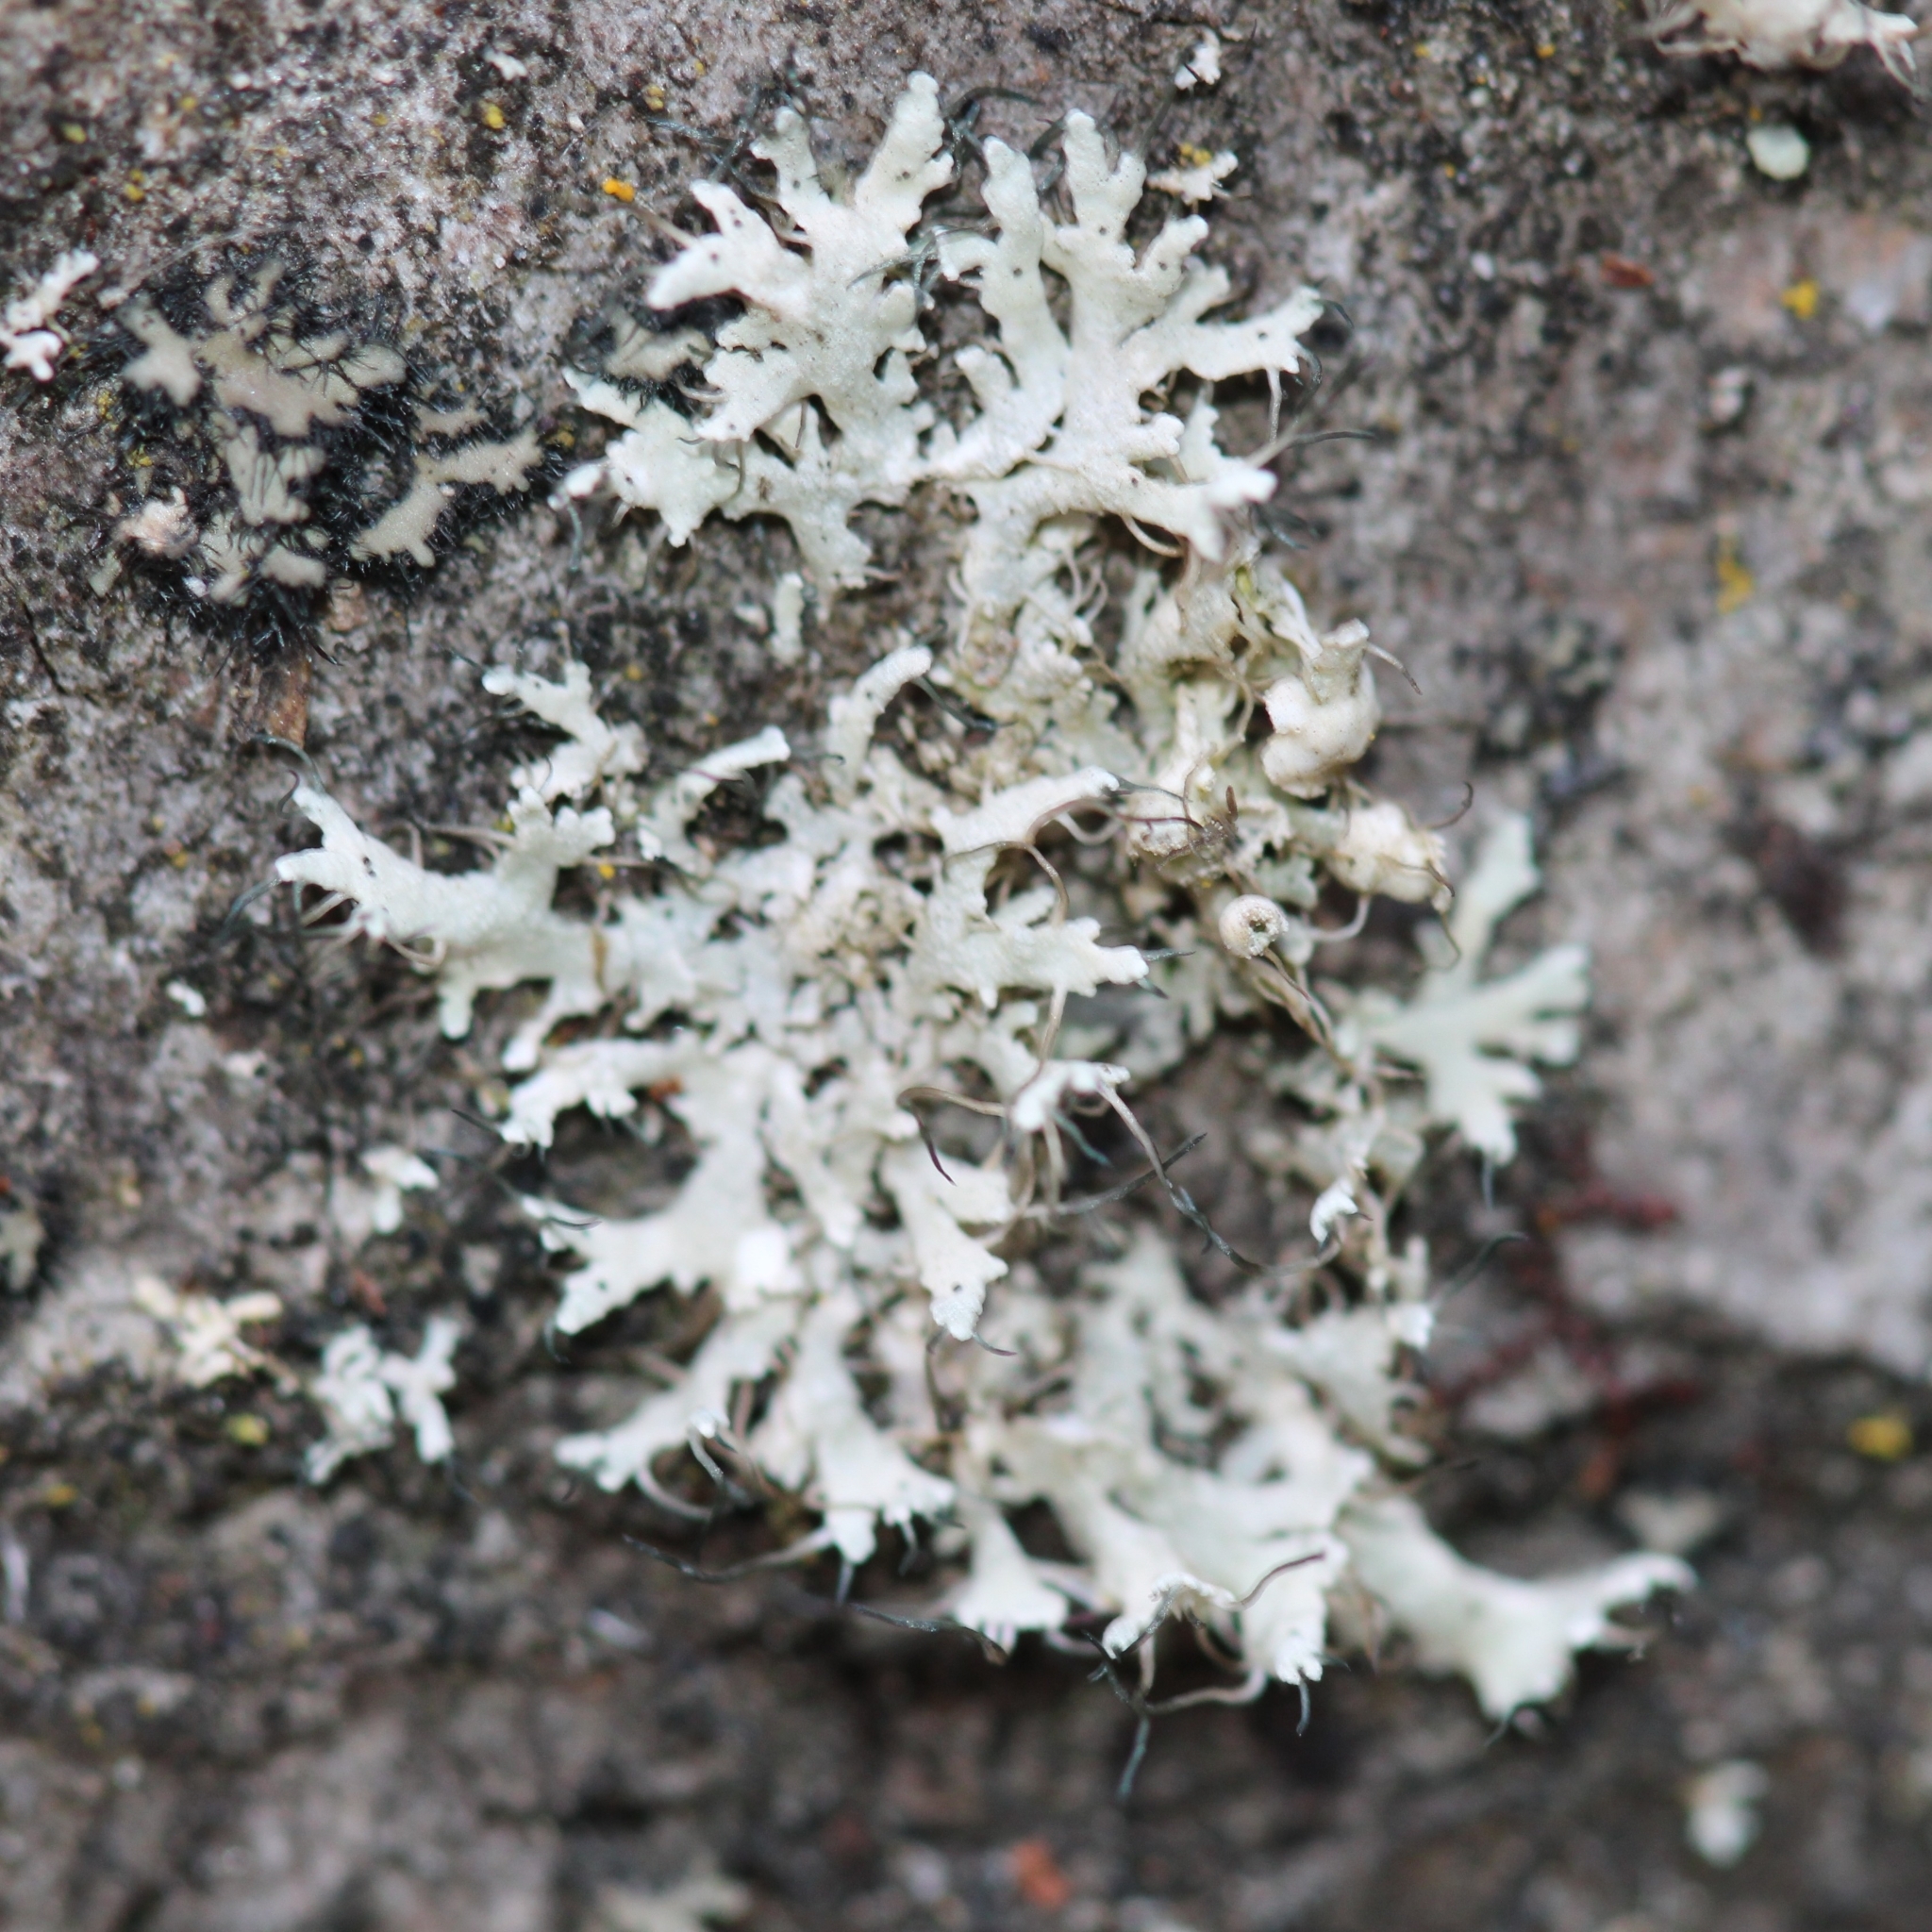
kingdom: Fungi
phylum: Ascomycota
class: Lecanoromycetes
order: Caliciales
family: Physciaceae
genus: Physcia
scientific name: Physcia adscendens
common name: Hooded rosette lichen
